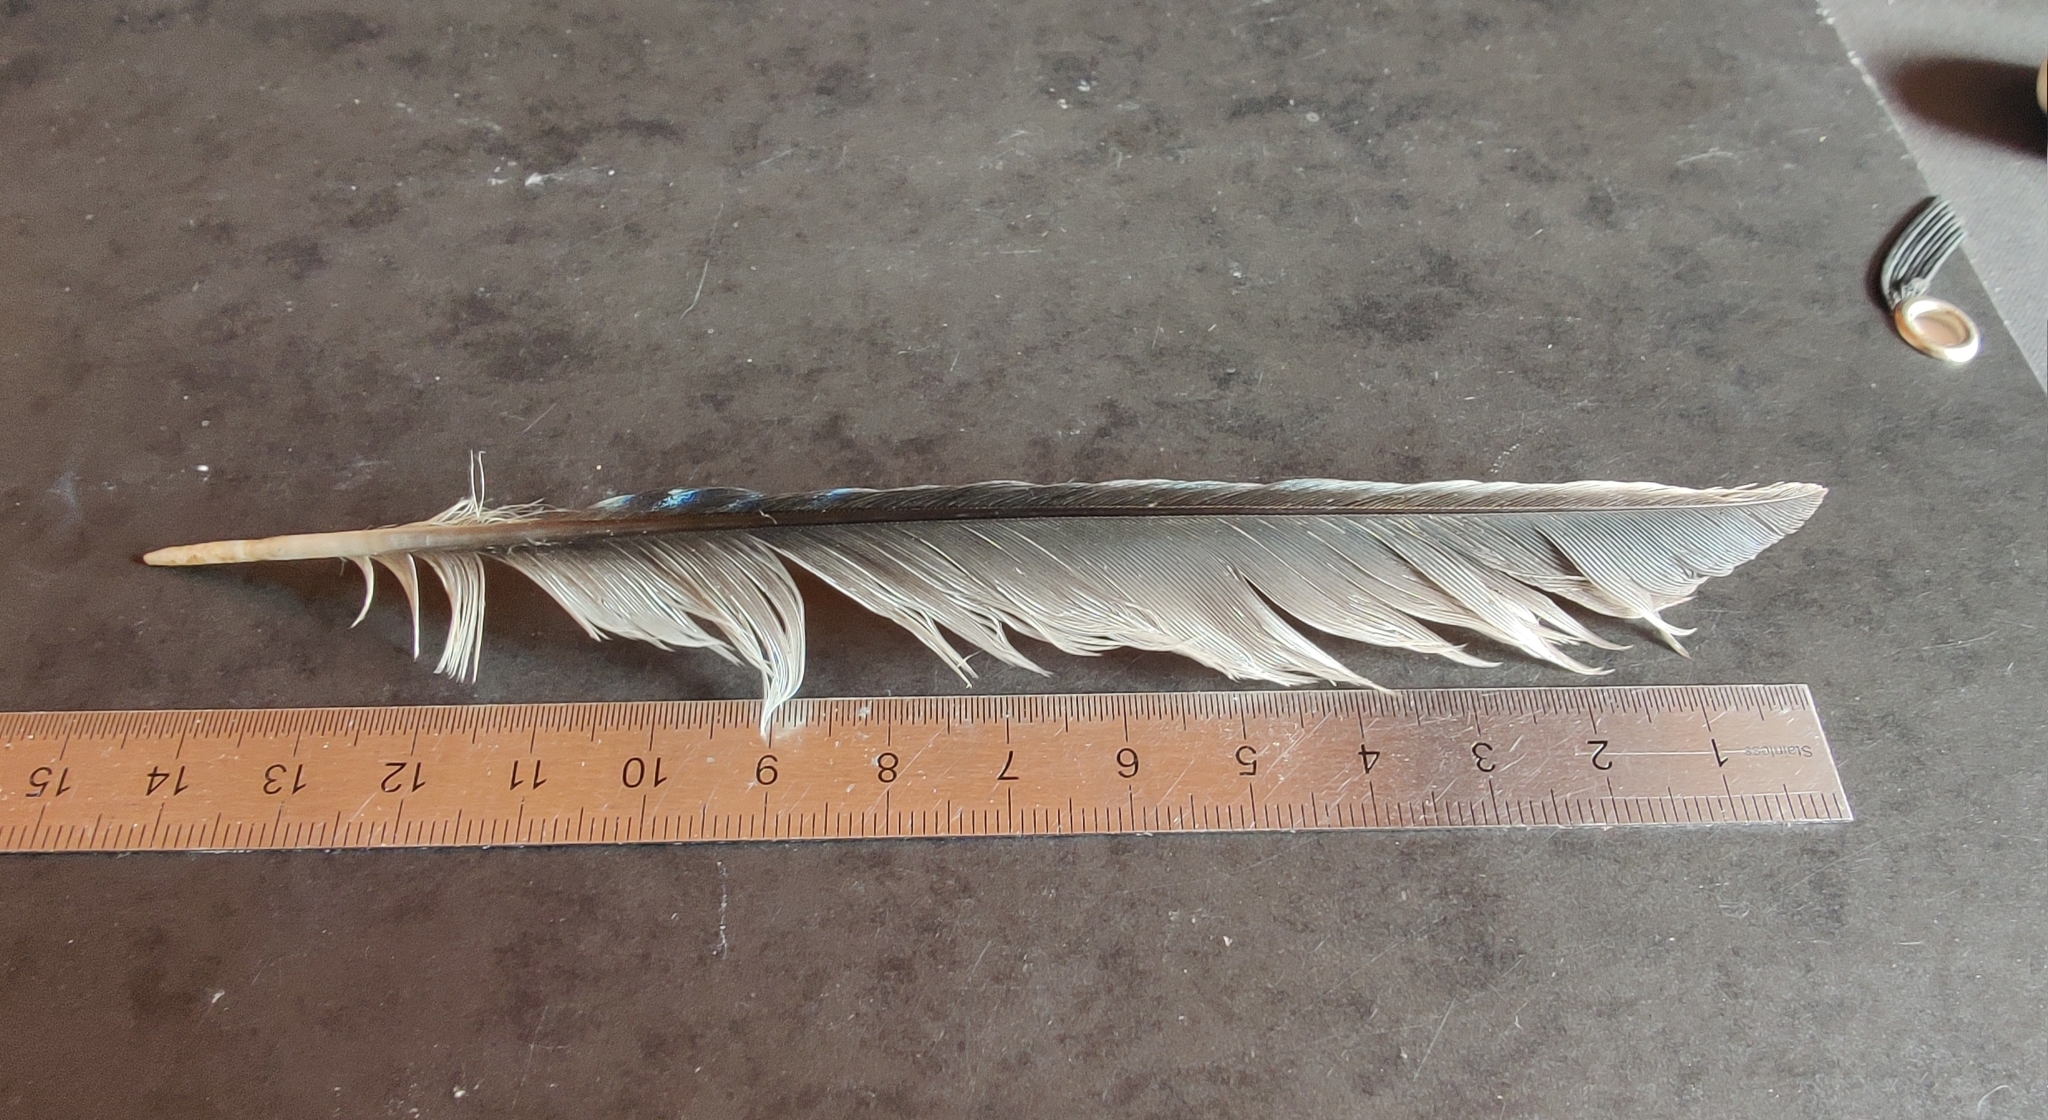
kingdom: Animalia
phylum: Chordata
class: Aves
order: Passeriformes
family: Corvidae
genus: Garrulus
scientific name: Garrulus glandarius
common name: Eurasian jay
